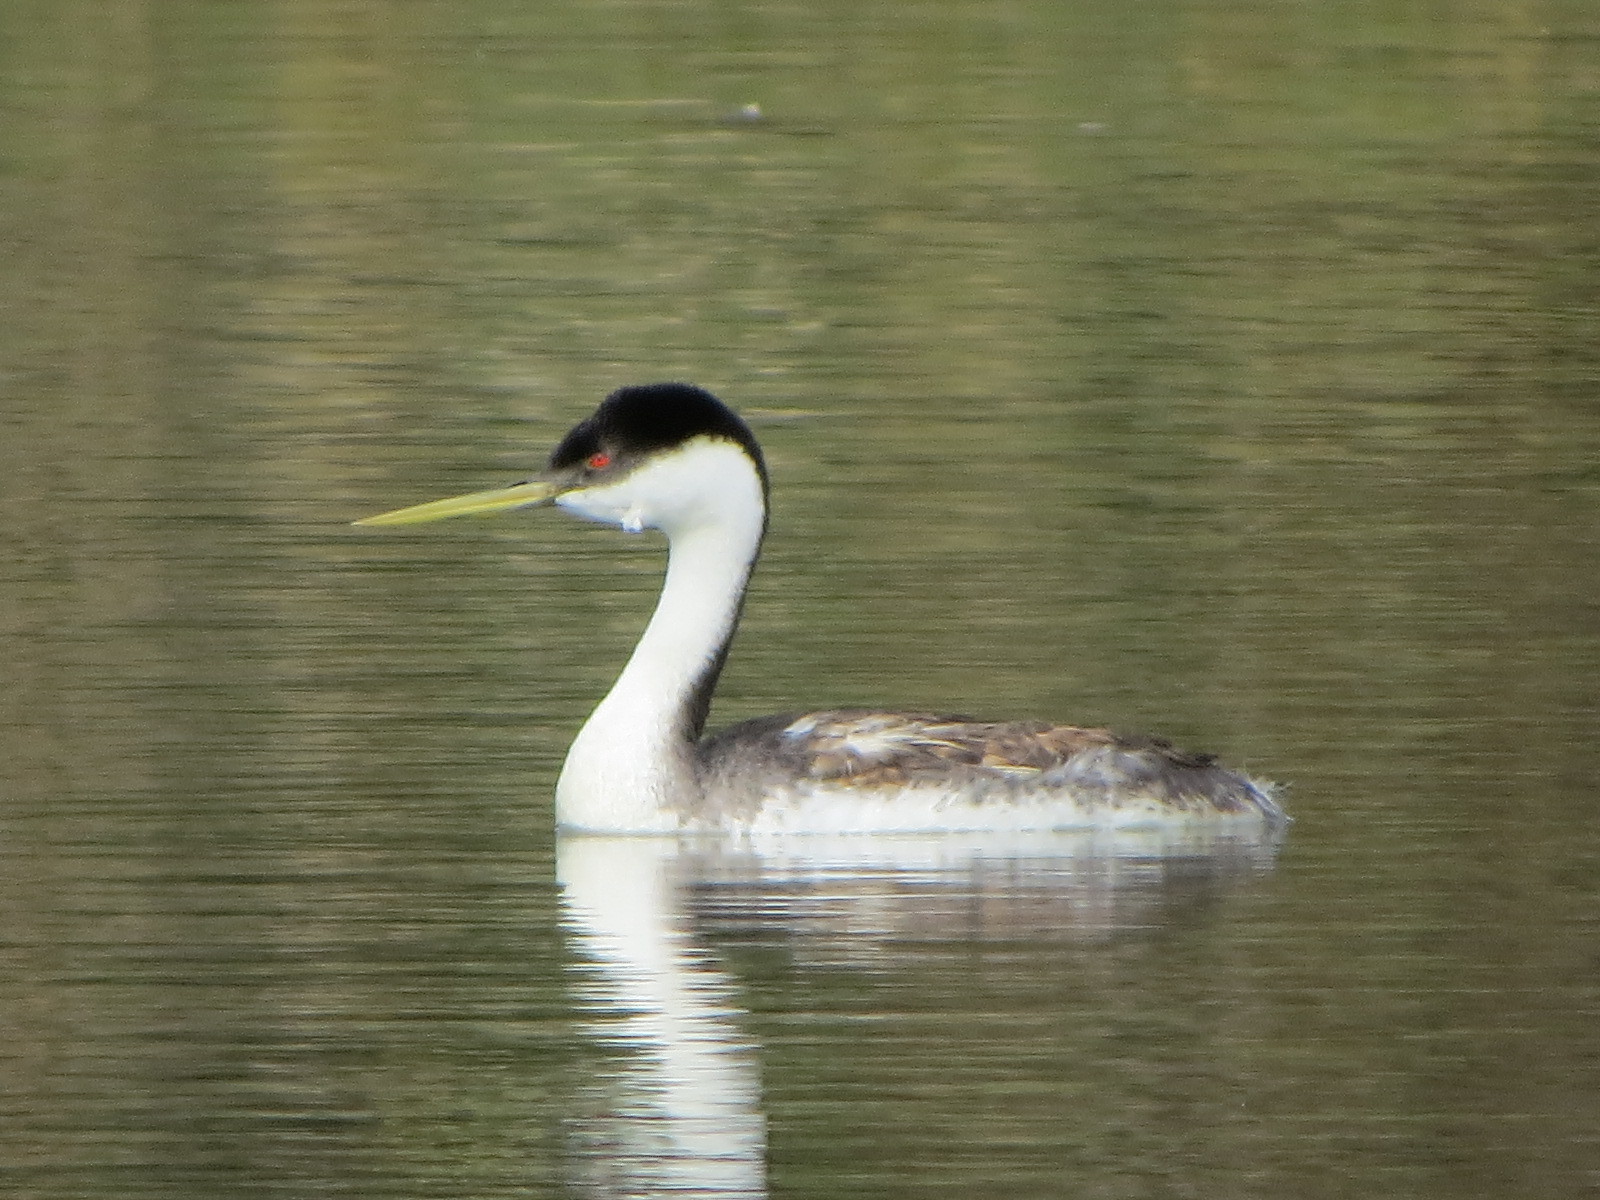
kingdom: Animalia
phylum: Chordata
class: Aves
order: Podicipediformes
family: Podicipedidae
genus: Aechmophorus
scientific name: Aechmophorus occidentalis
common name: Western grebe
